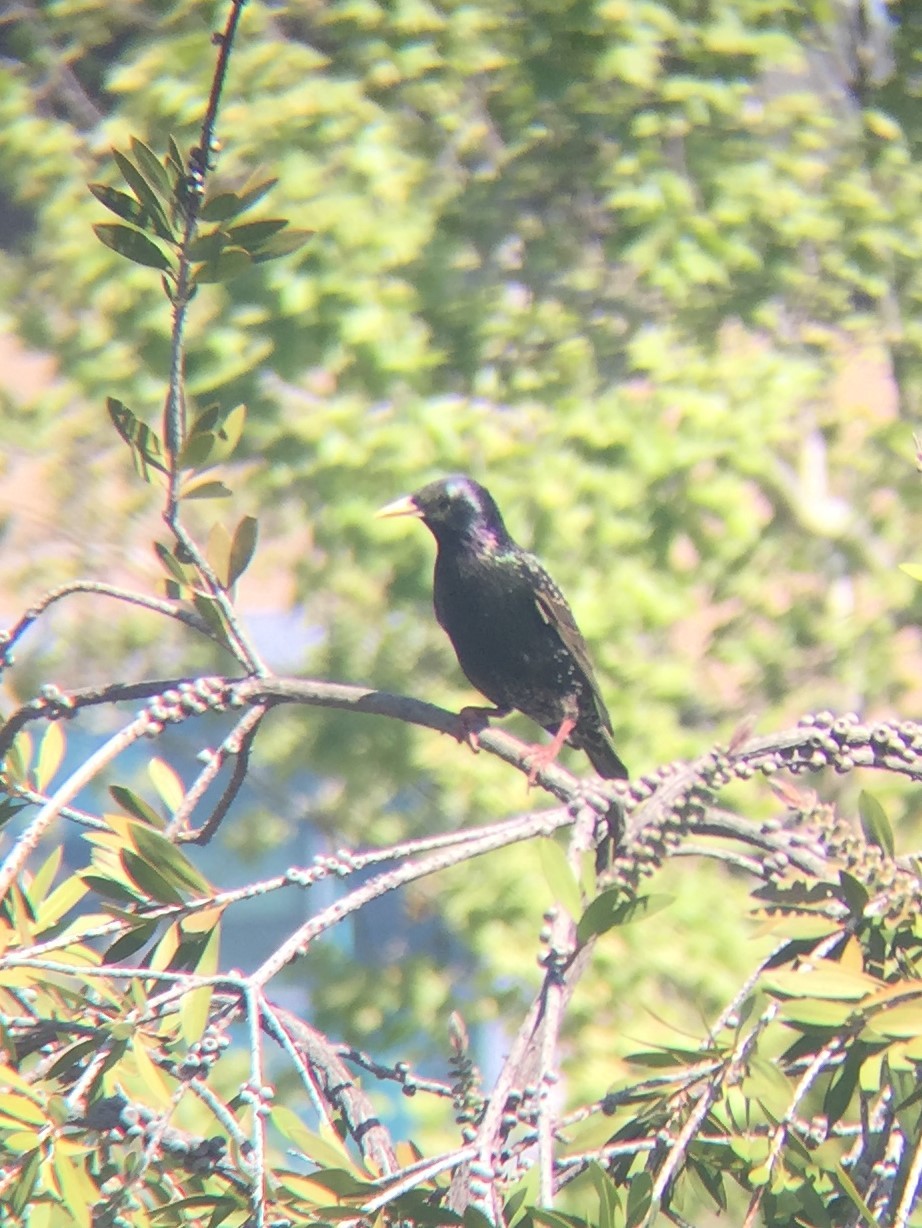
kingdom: Animalia
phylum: Chordata
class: Aves
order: Passeriformes
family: Sturnidae
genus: Sturnus
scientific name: Sturnus vulgaris
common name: Common starling
